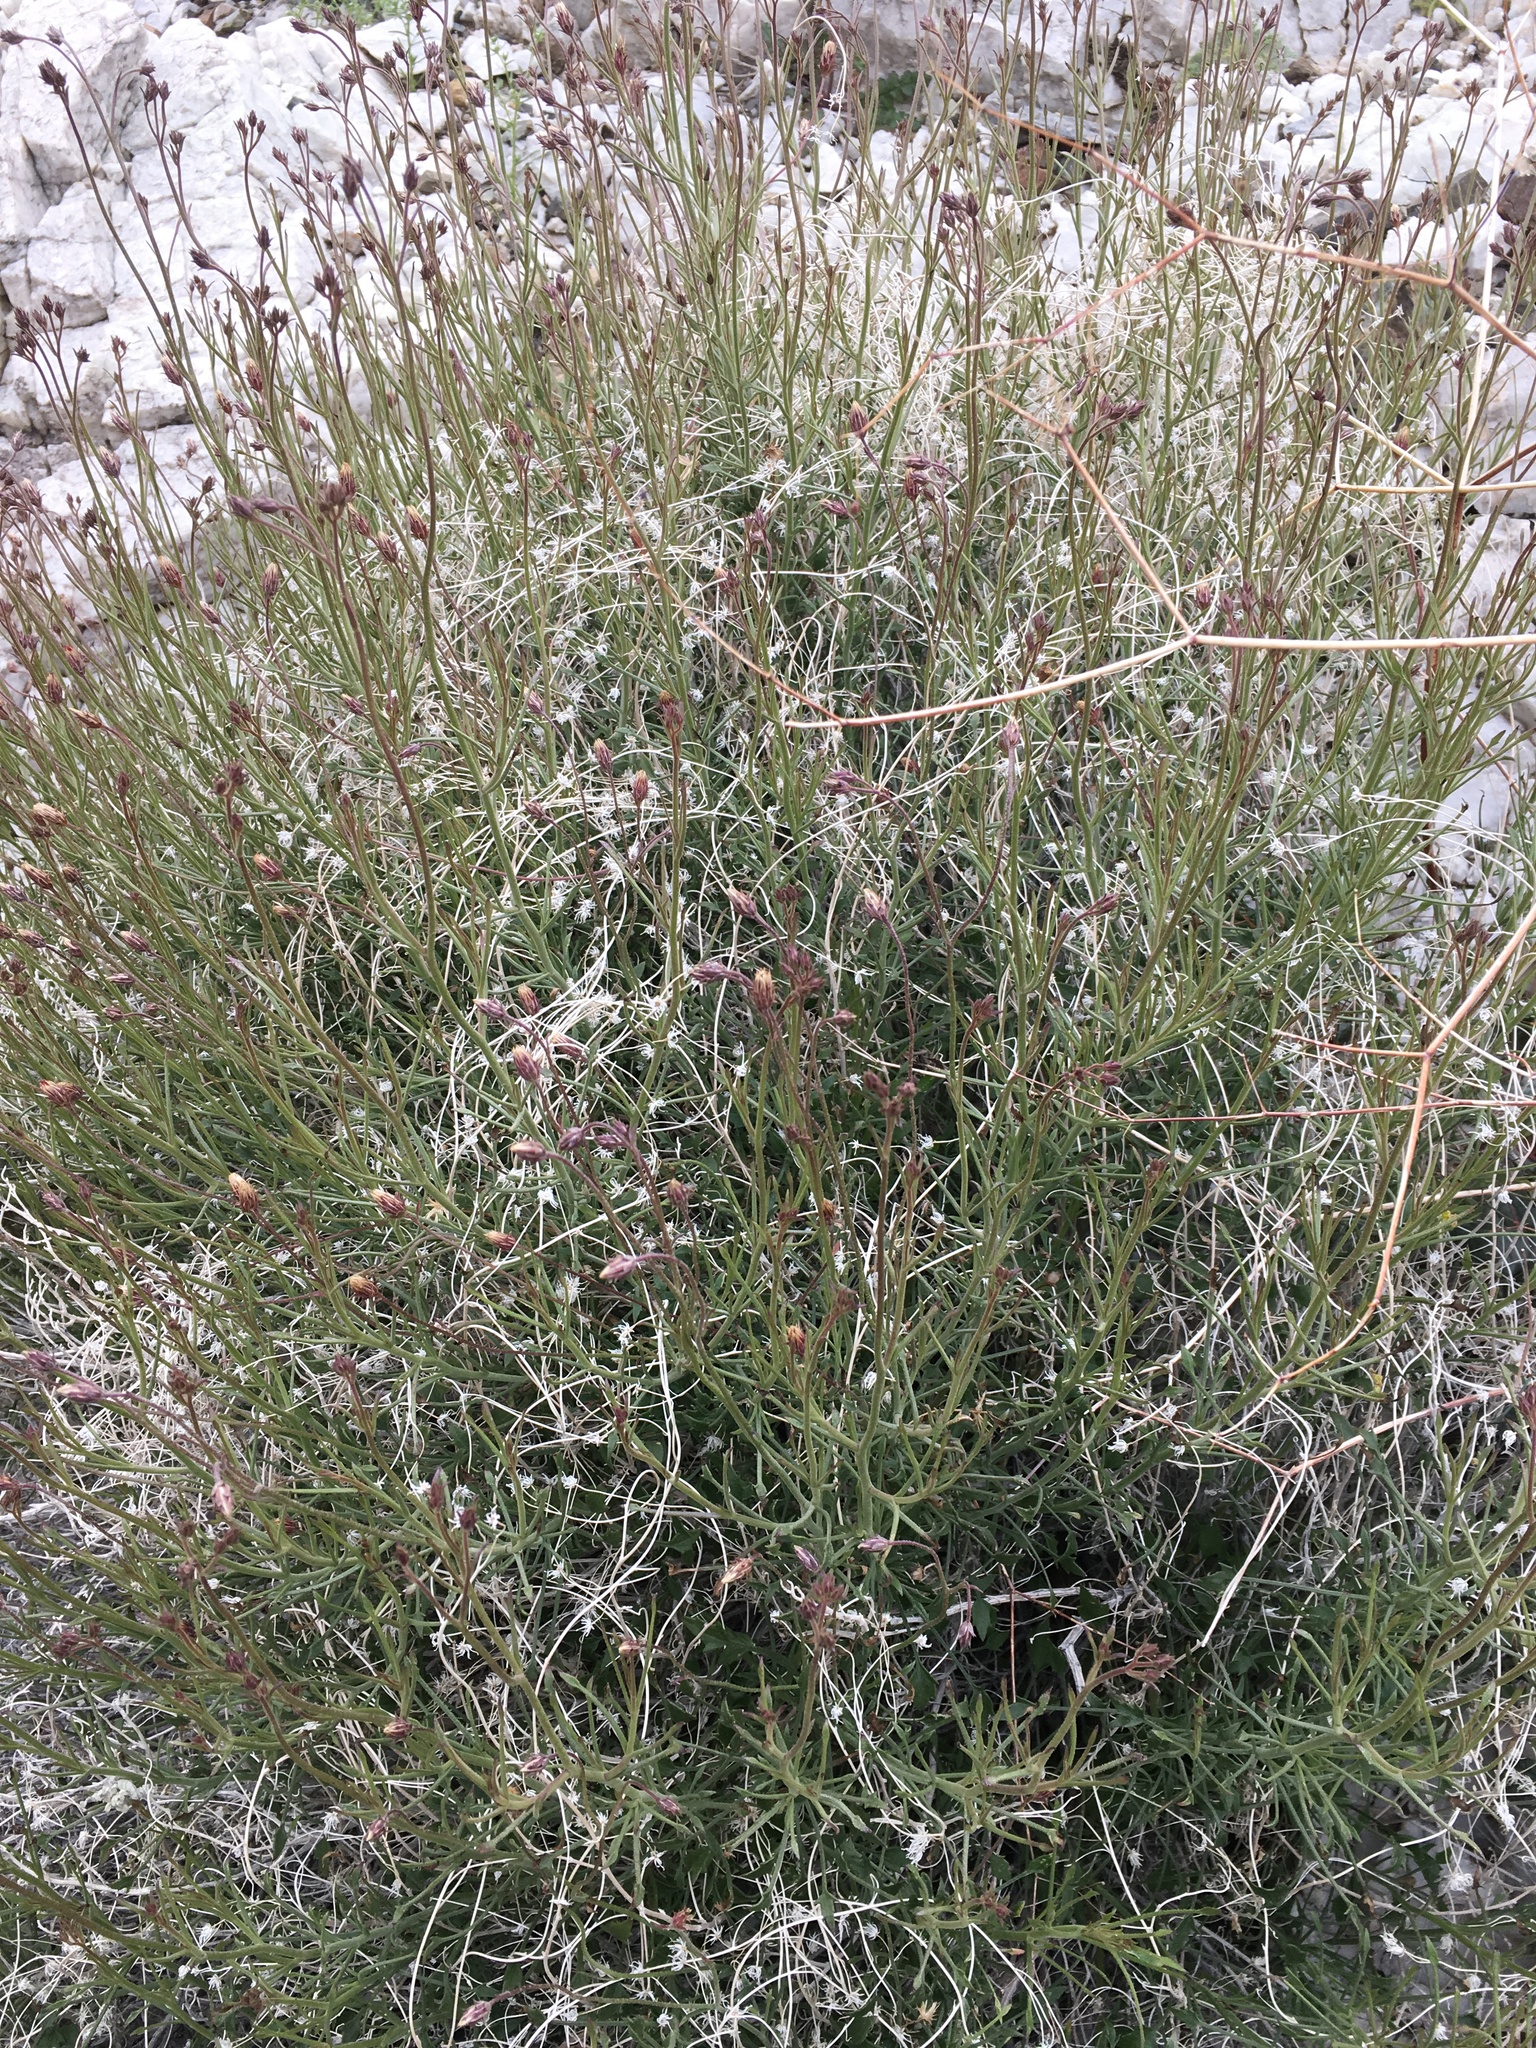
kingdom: Plantae
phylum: Tracheophyta
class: Magnoliopsida
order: Asterales
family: Asteraceae
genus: Pleurocoronis
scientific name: Pleurocoronis pluriseta
